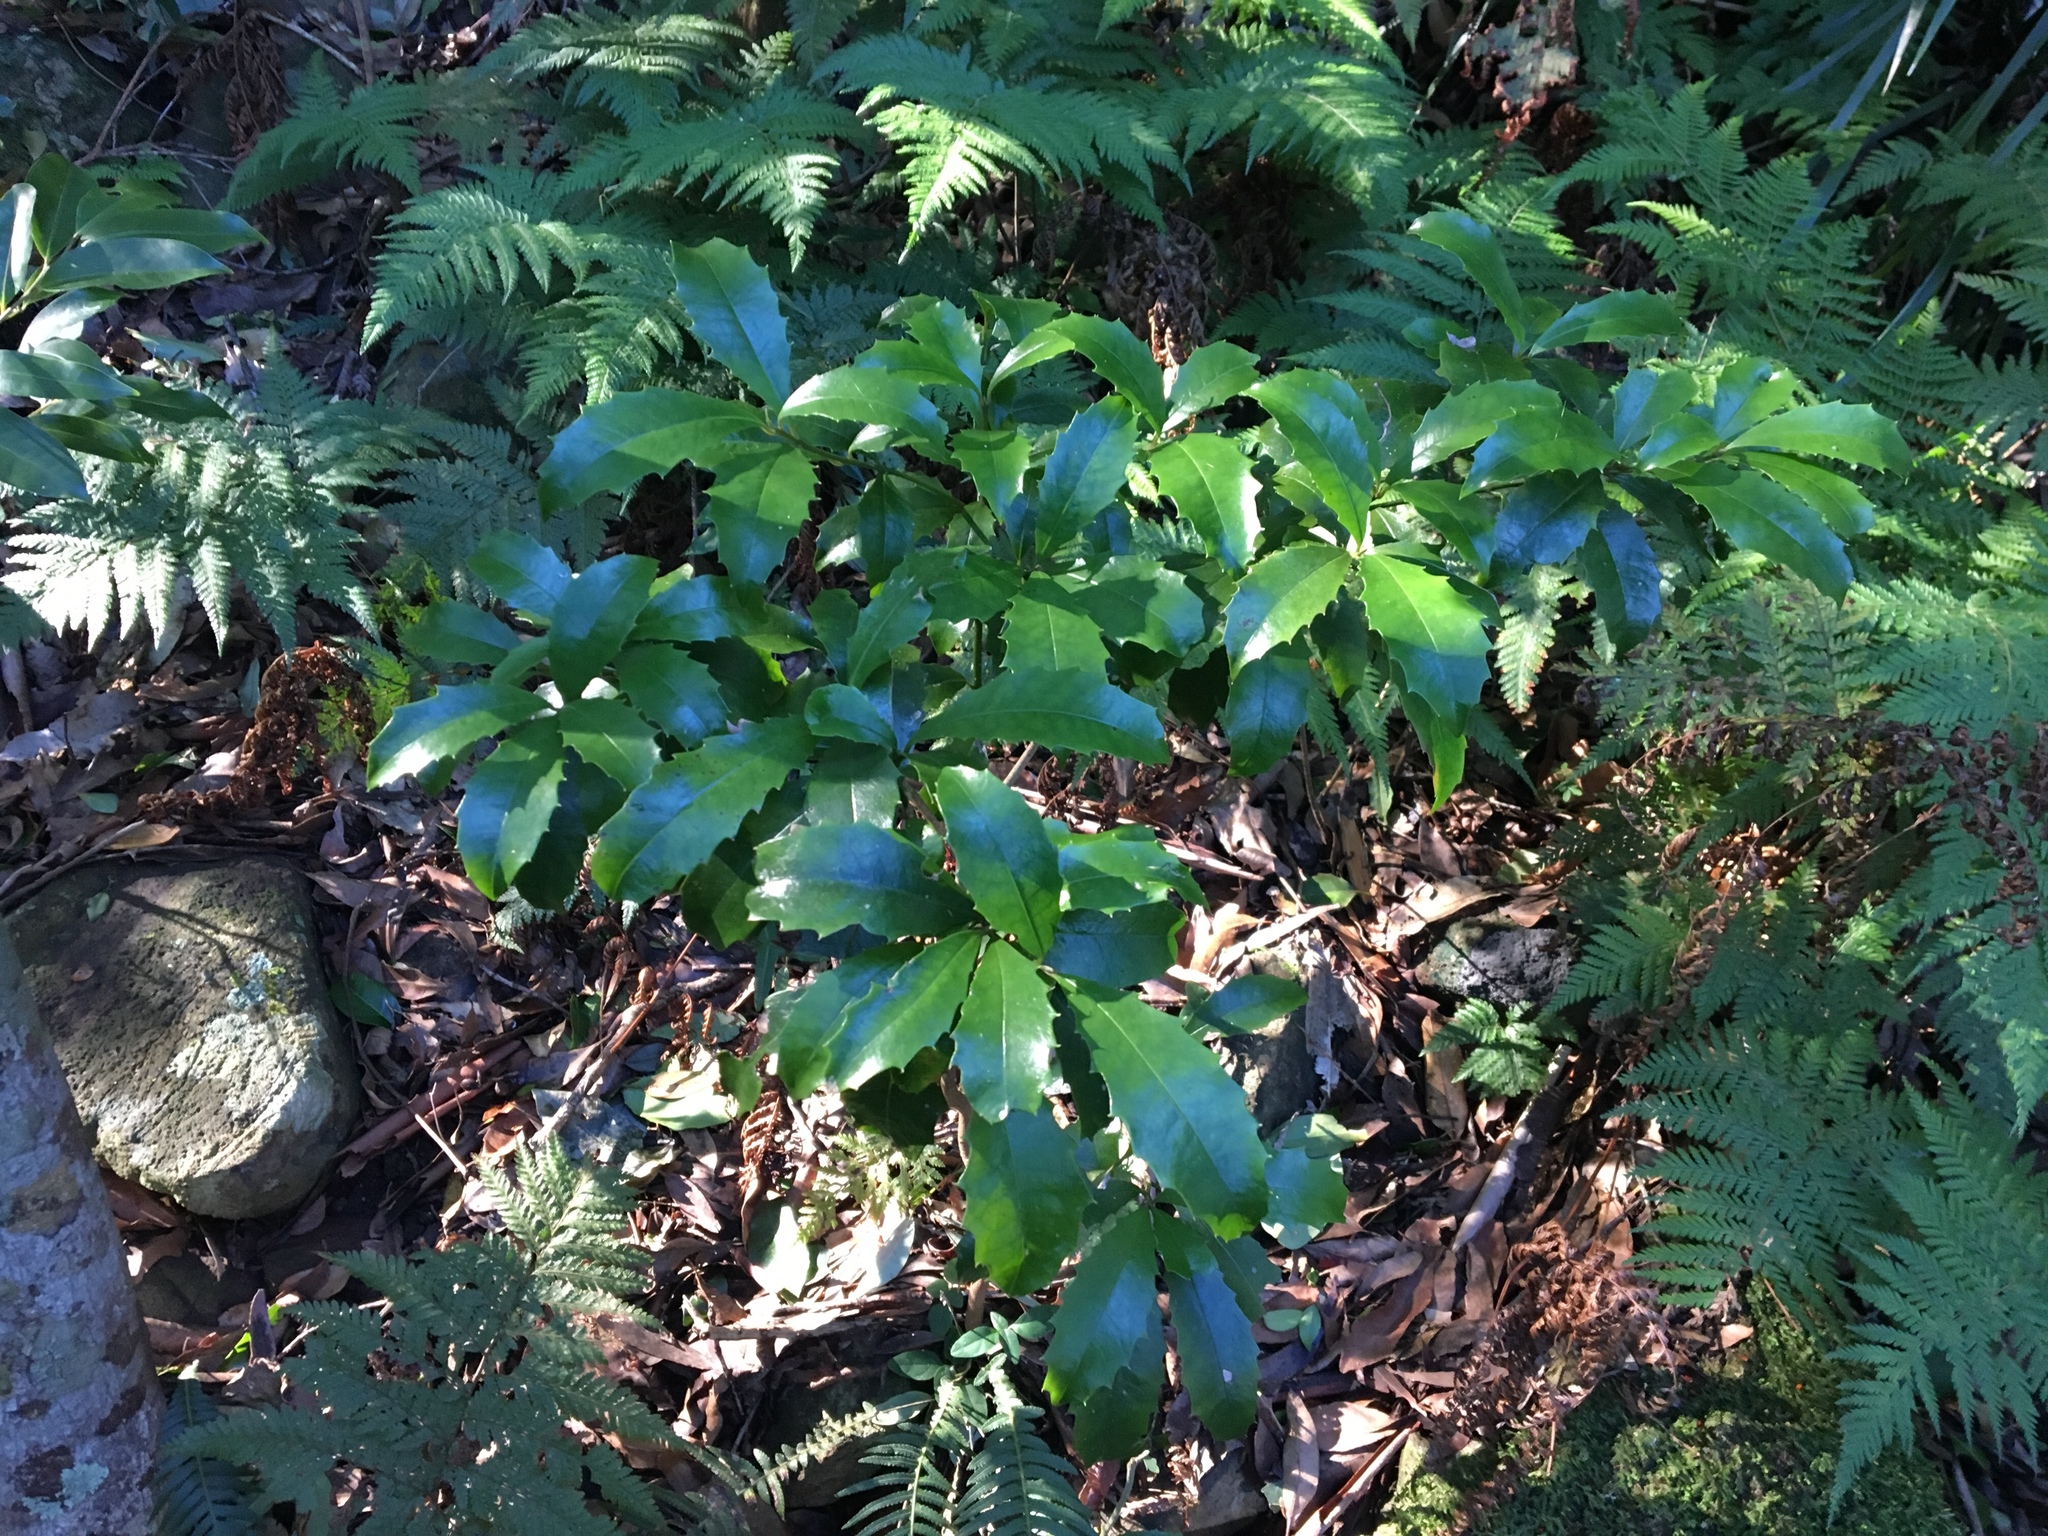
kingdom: Plantae
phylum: Tracheophyta
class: Magnoliopsida
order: Escalloniales
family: Escalloniaceae
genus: Polyosma
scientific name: Polyosma cunninghamii
